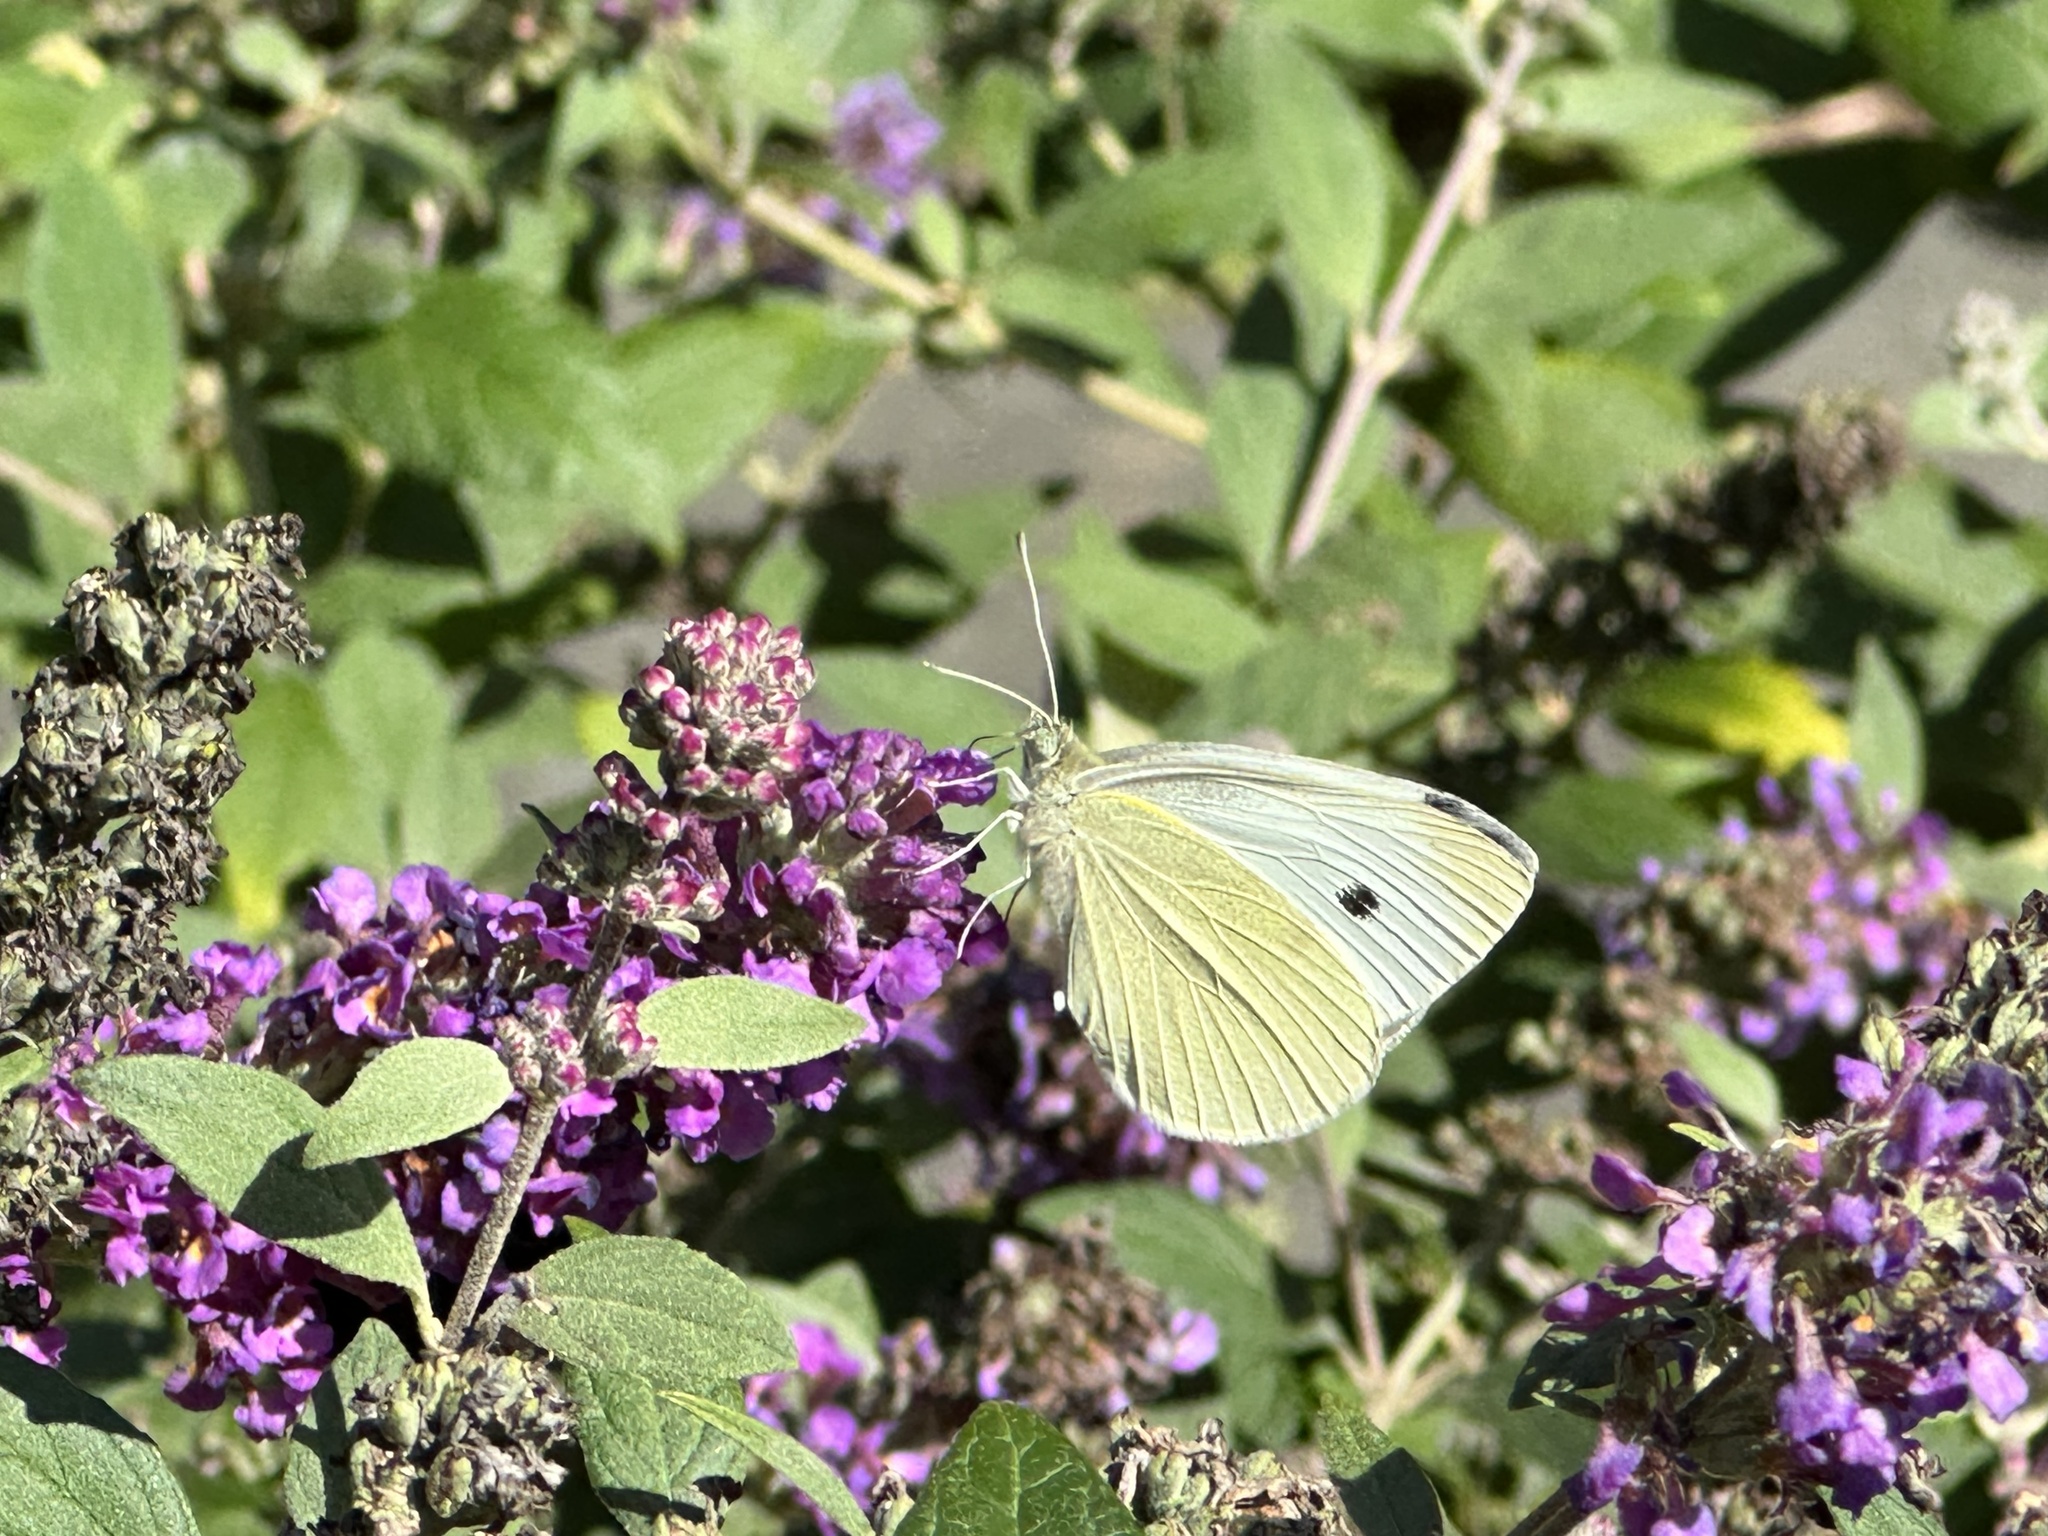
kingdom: Animalia
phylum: Arthropoda
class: Insecta
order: Lepidoptera
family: Pieridae
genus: Pieris
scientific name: Pieris rapae
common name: Small white
